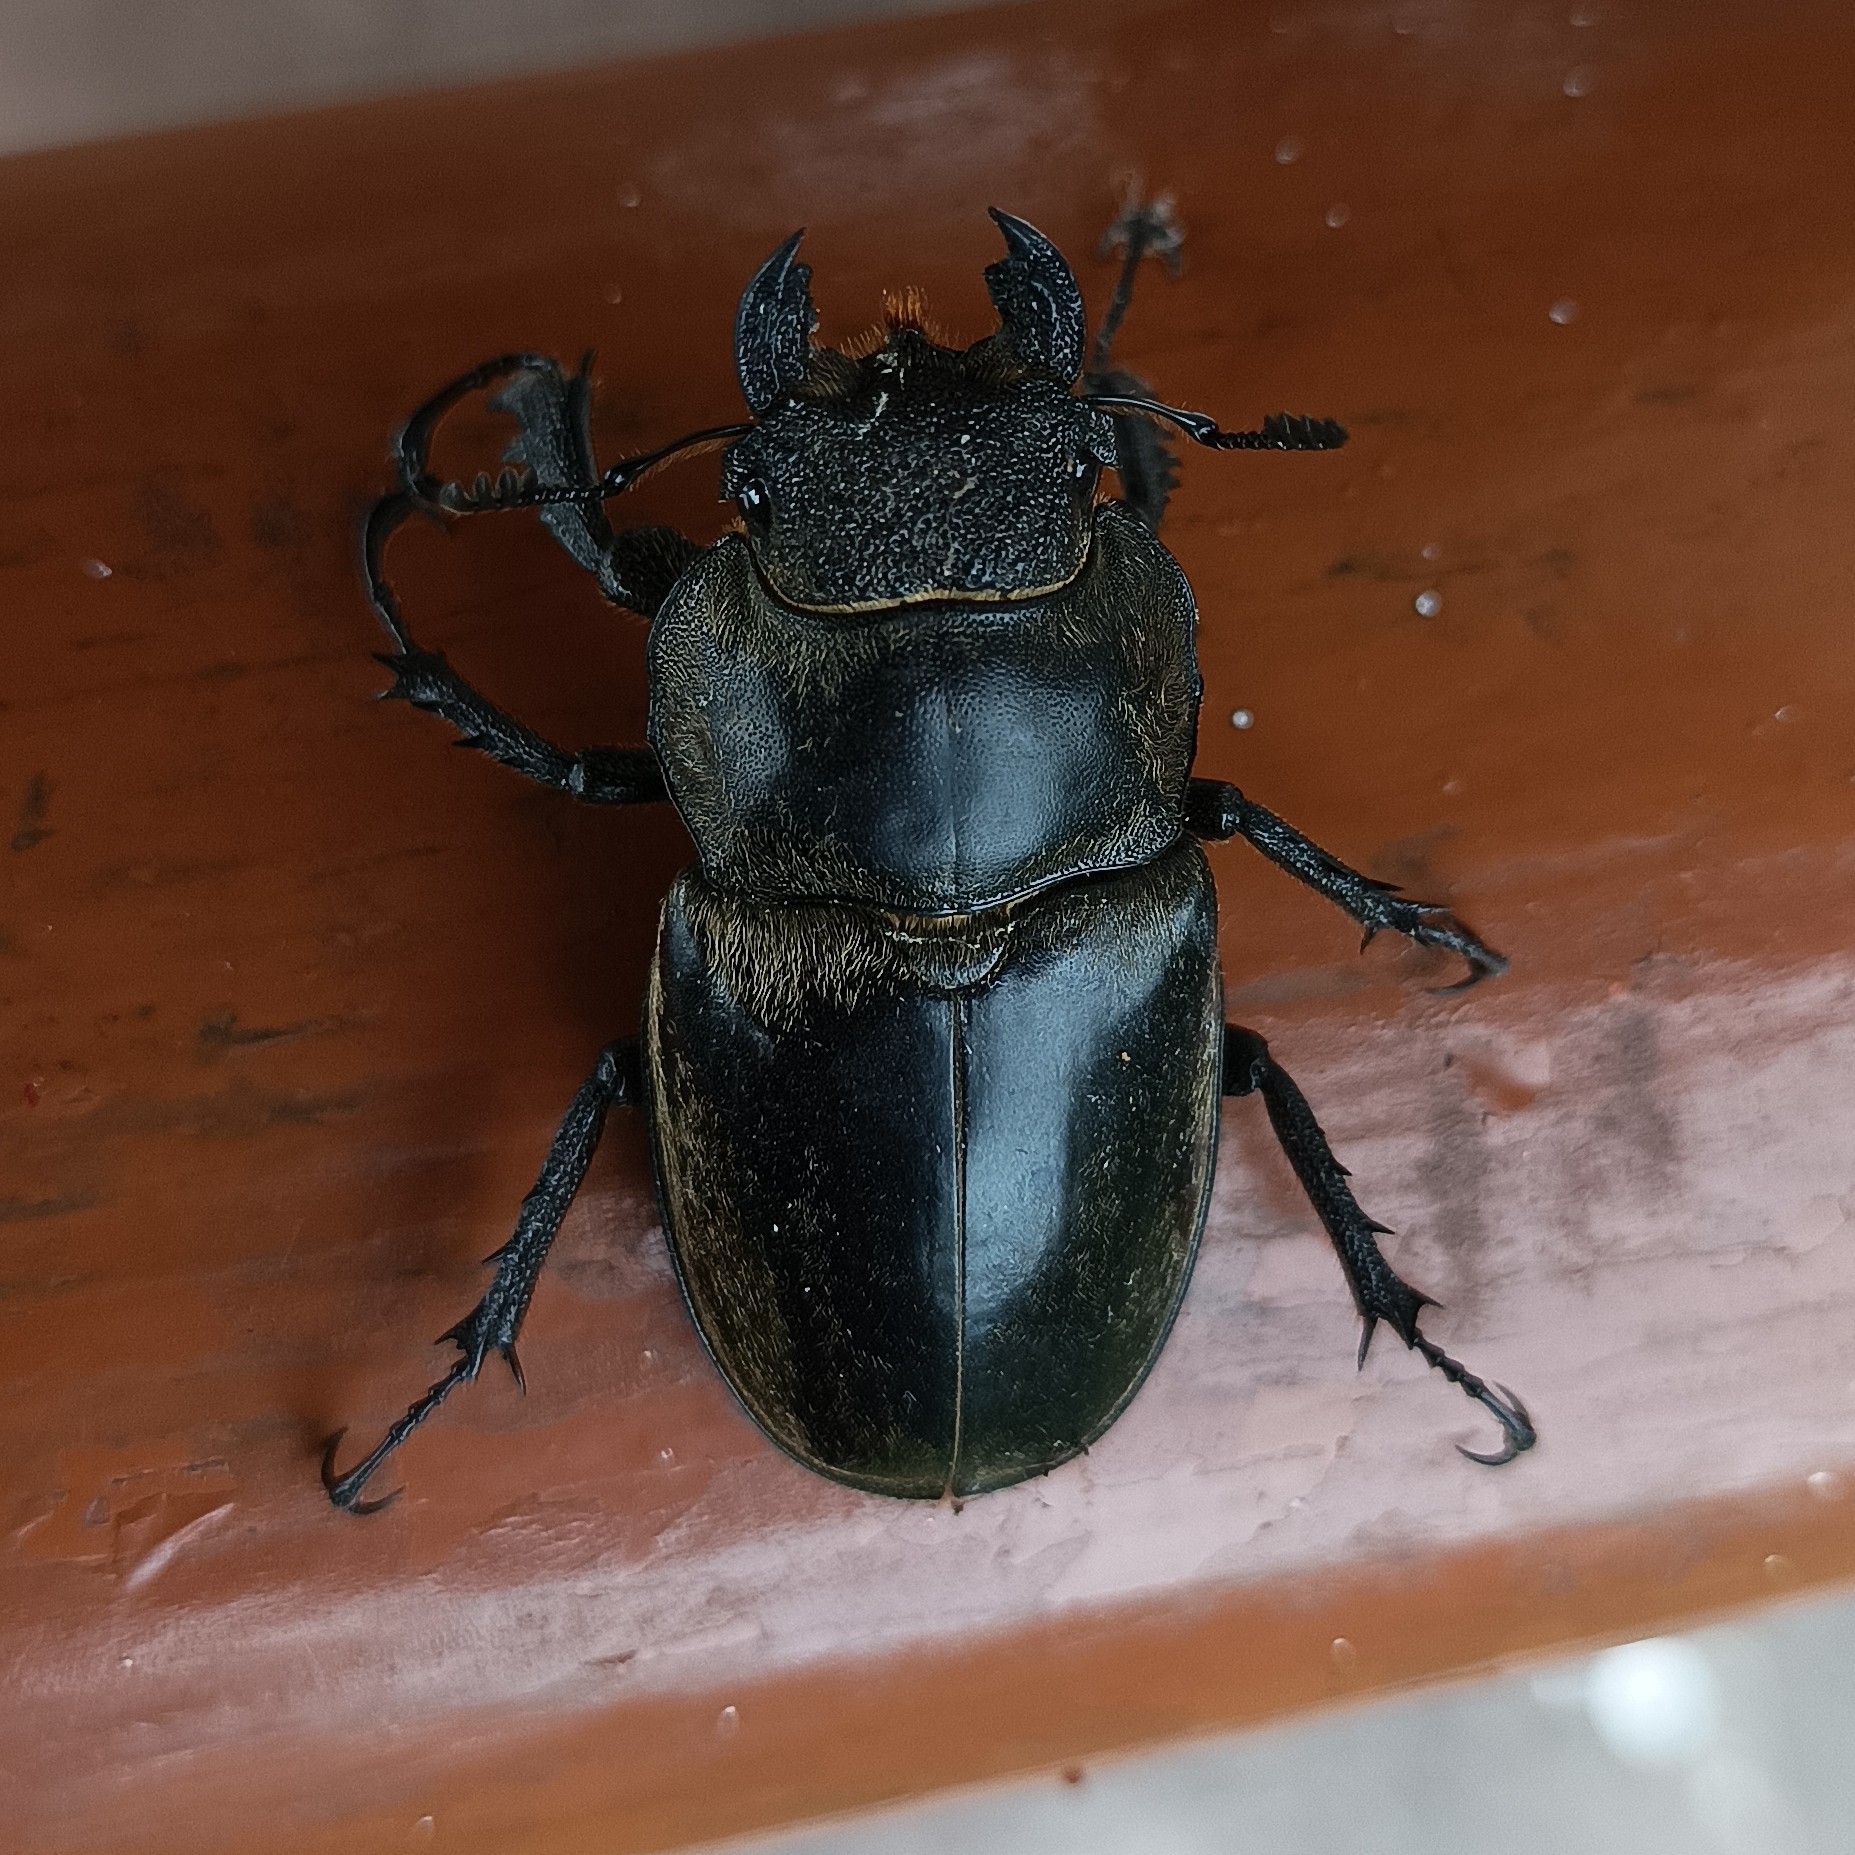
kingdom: Animalia
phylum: Arthropoda
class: Insecta
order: Coleoptera
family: Lucanidae
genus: Lucanus
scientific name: Lucanus lunifer
